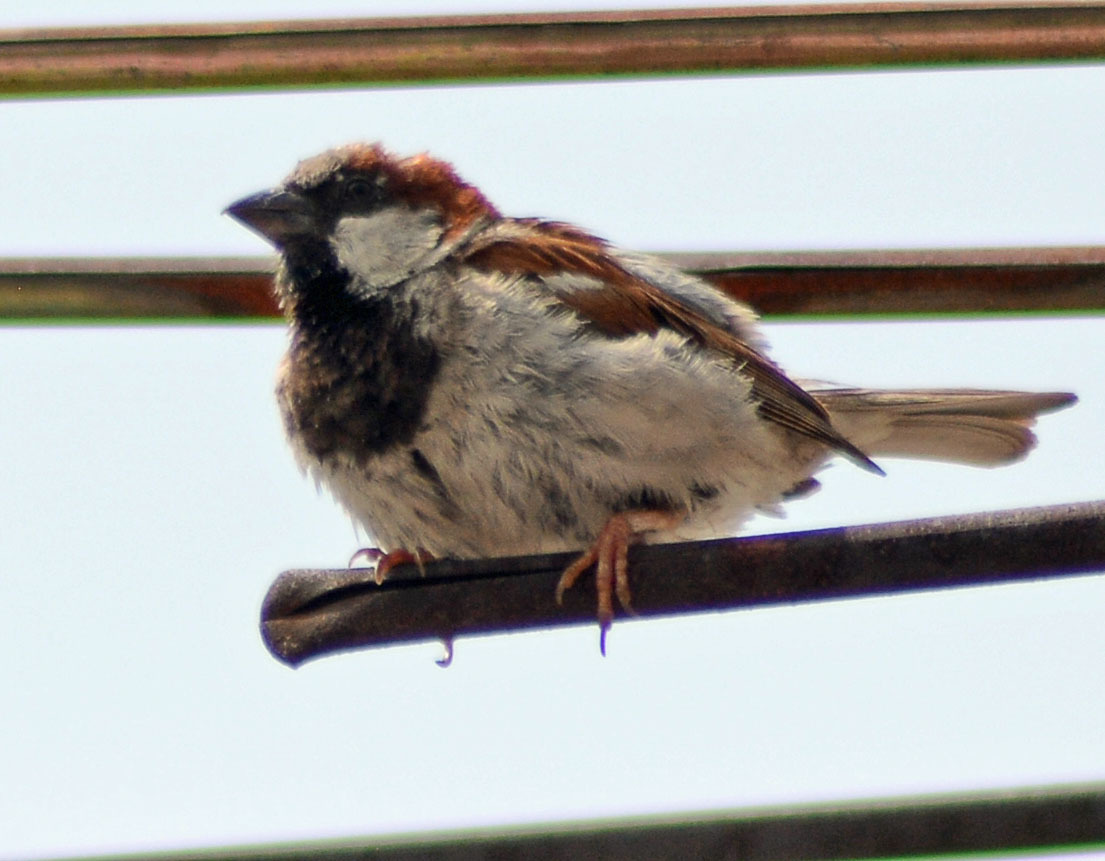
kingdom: Animalia
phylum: Chordata
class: Aves
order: Passeriformes
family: Passeridae
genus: Passer
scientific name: Passer domesticus
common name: House sparrow
